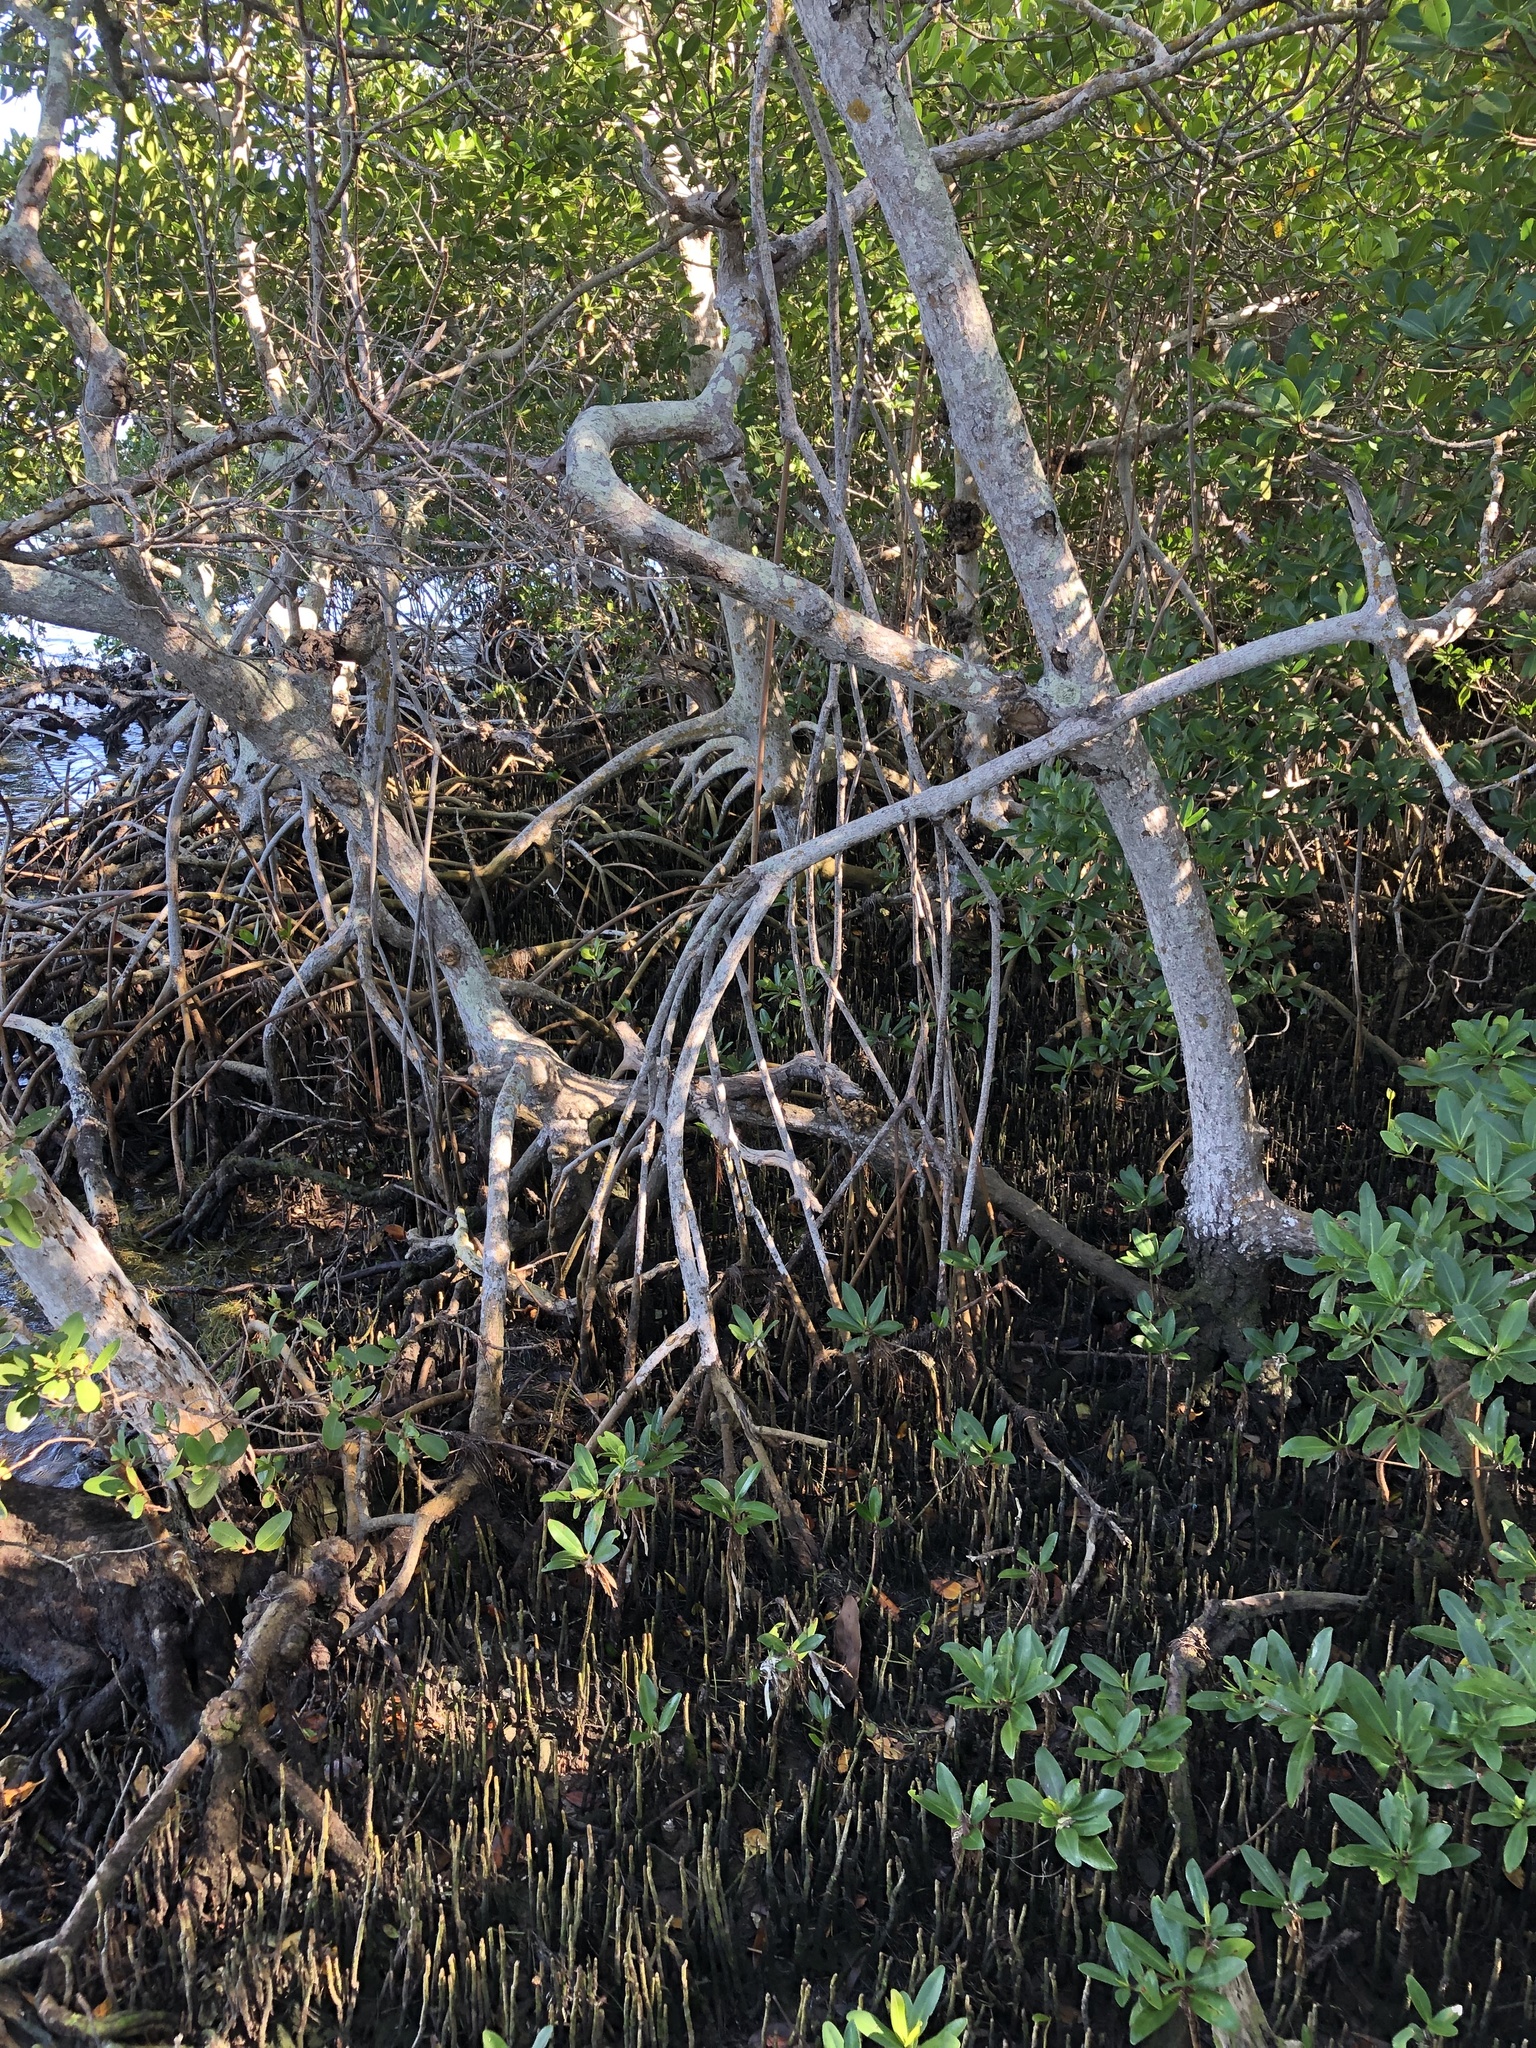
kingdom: Plantae
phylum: Tracheophyta
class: Magnoliopsida
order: Malpighiales
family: Rhizophoraceae
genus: Rhizophora
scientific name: Rhizophora mangle
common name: Red mangrove
